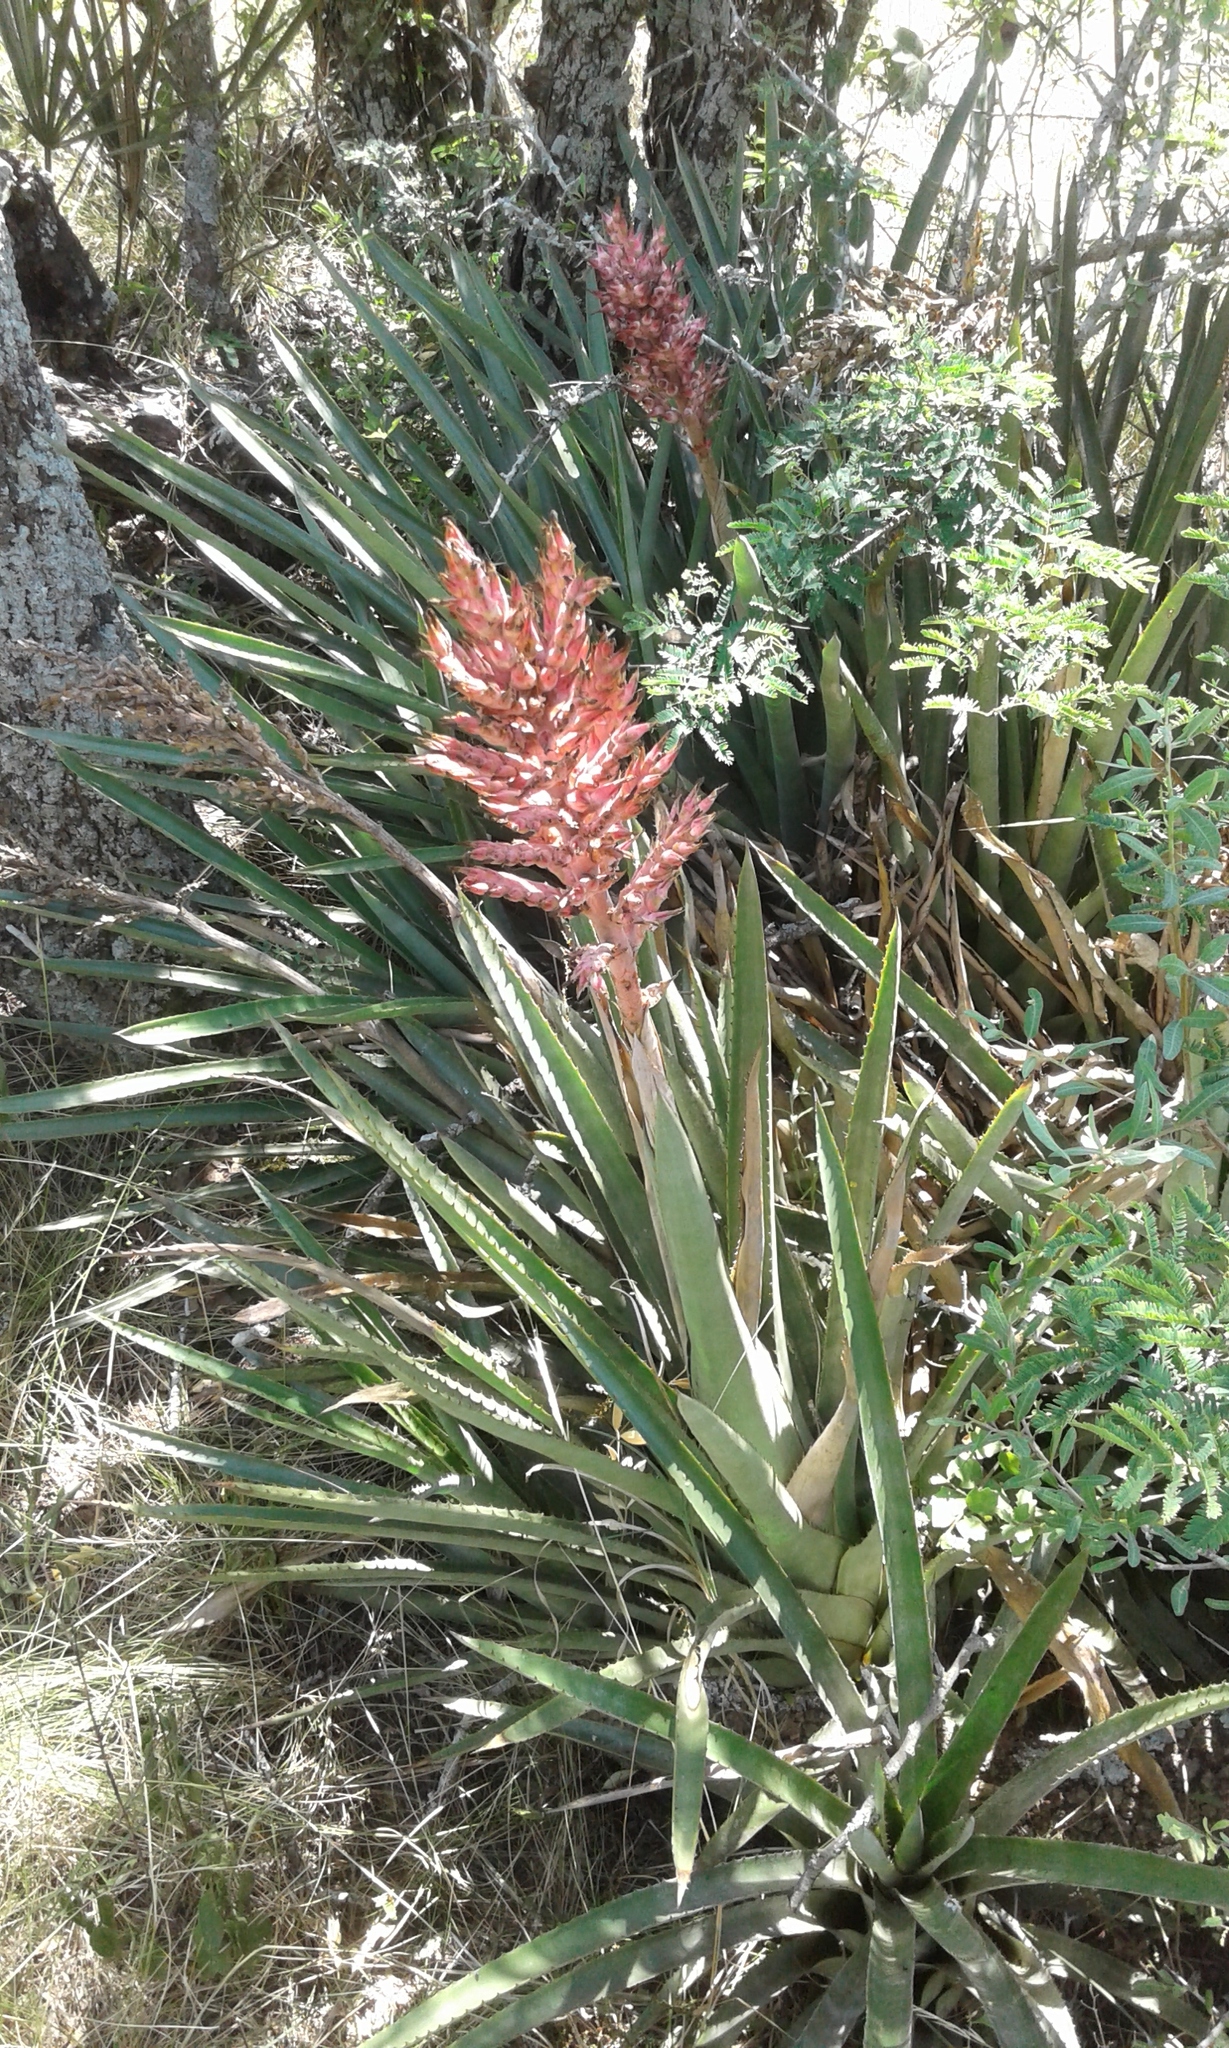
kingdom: Plantae
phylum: Tracheophyta
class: Liliopsida
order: Poales
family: Bromeliaceae
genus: Aechmea
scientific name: Aechmea distichantha
